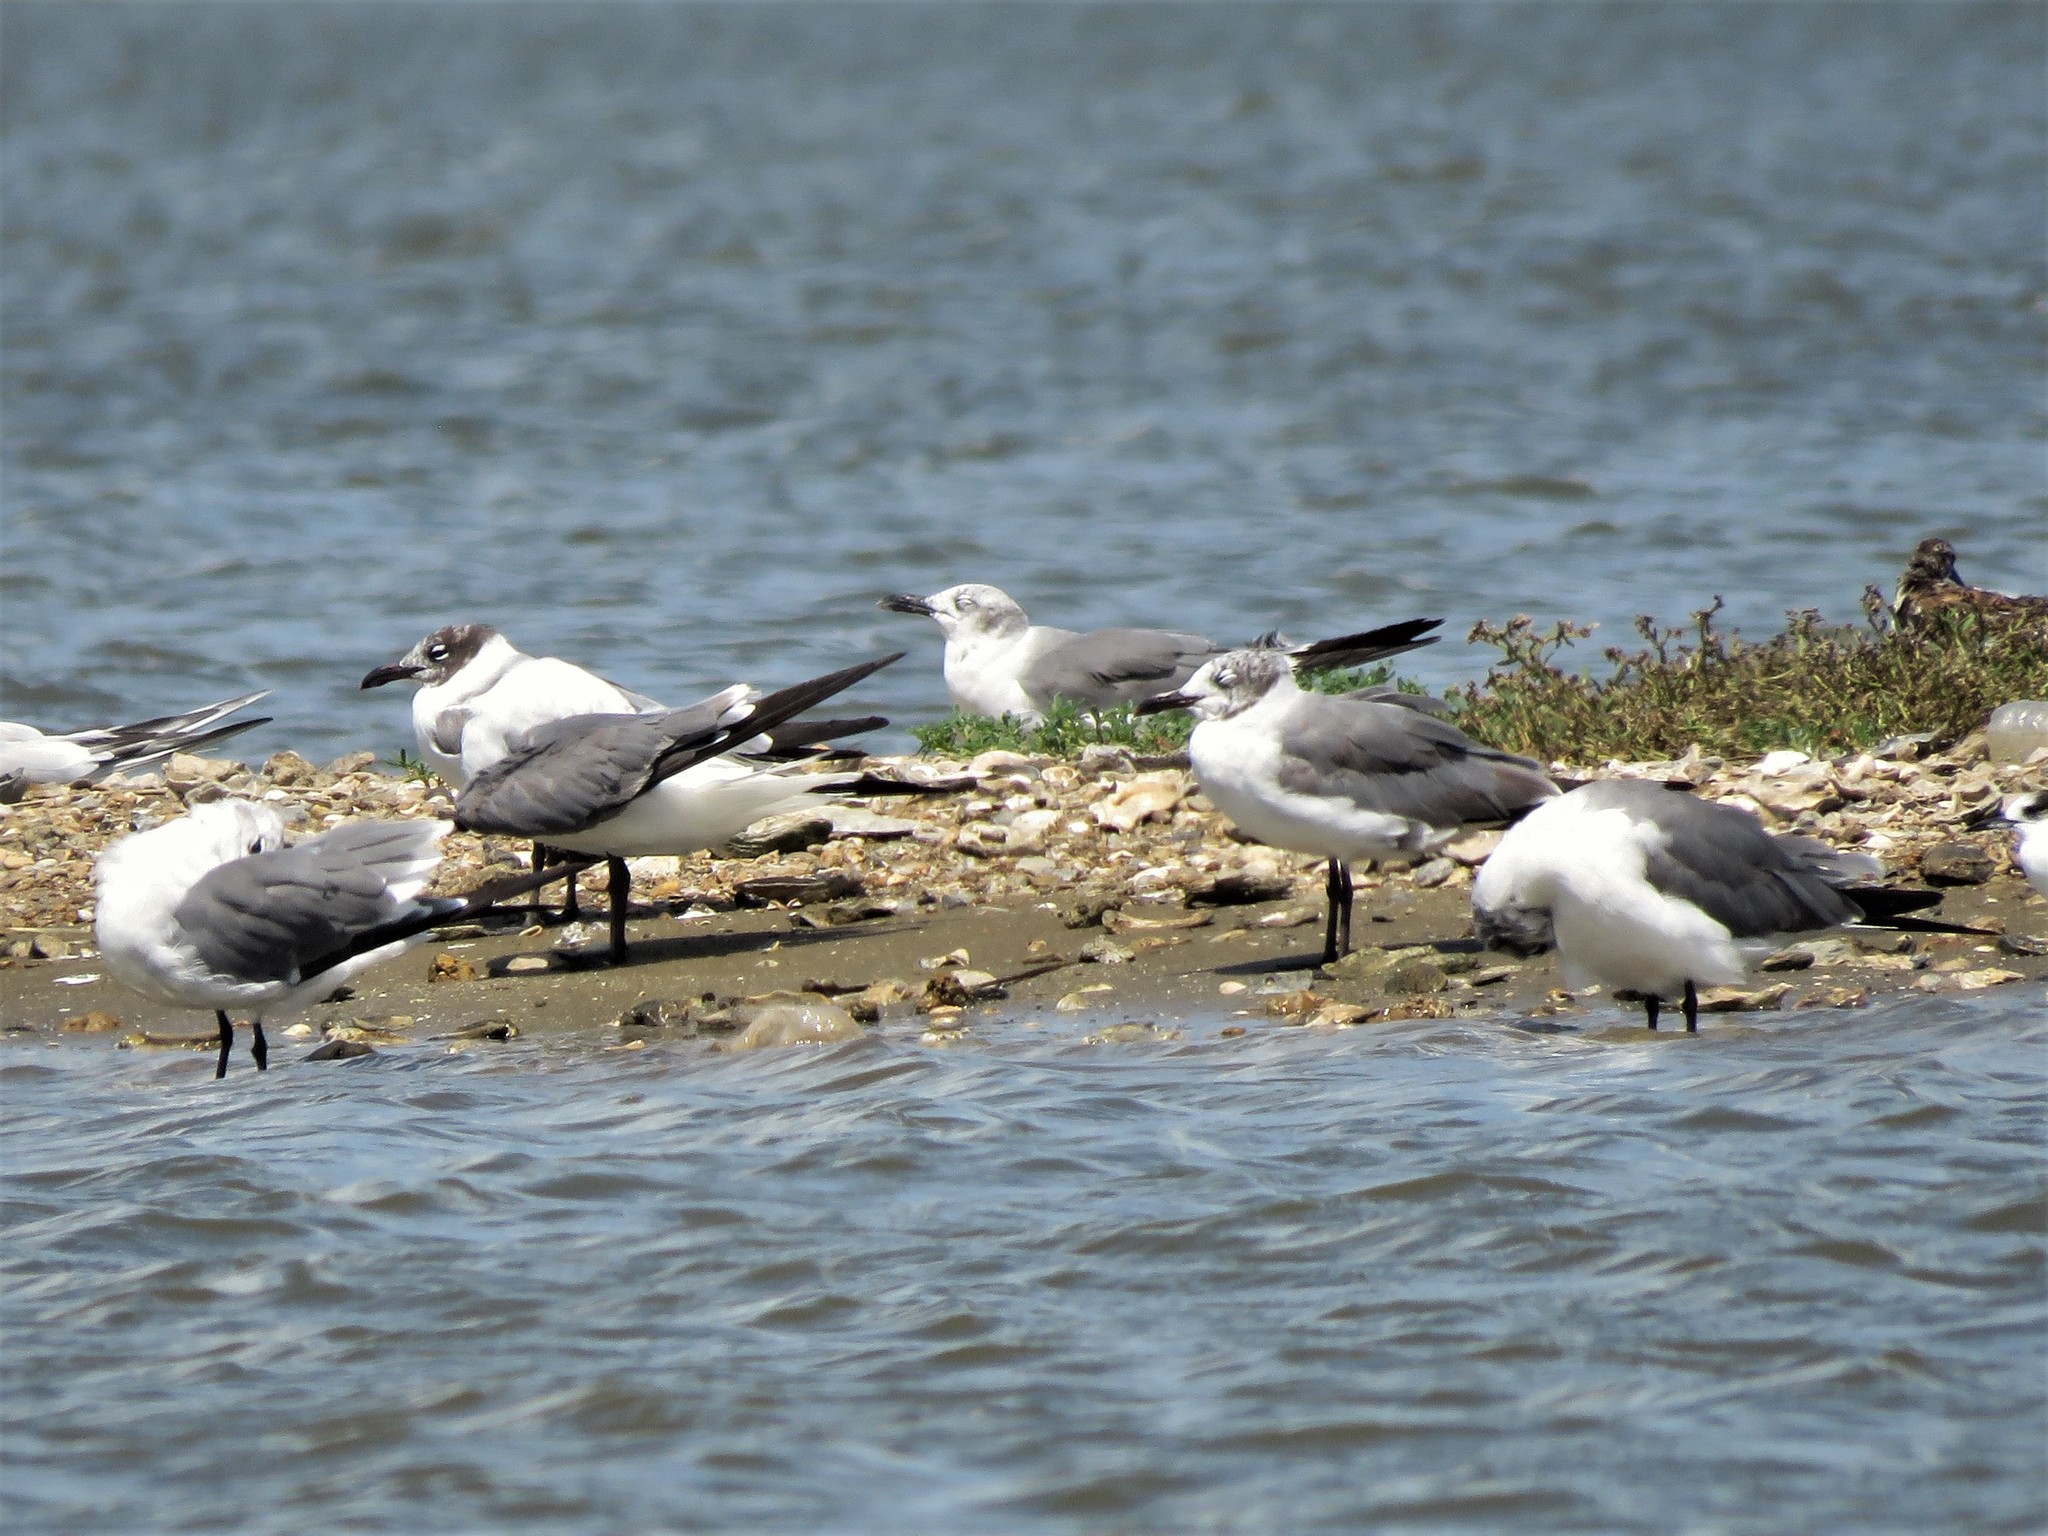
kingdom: Animalia
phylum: Chordata
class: Aves
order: Charadriiformes
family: Laridae
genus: Leucophaeus
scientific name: Leucophaeus atricilla
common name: Laughing gull
